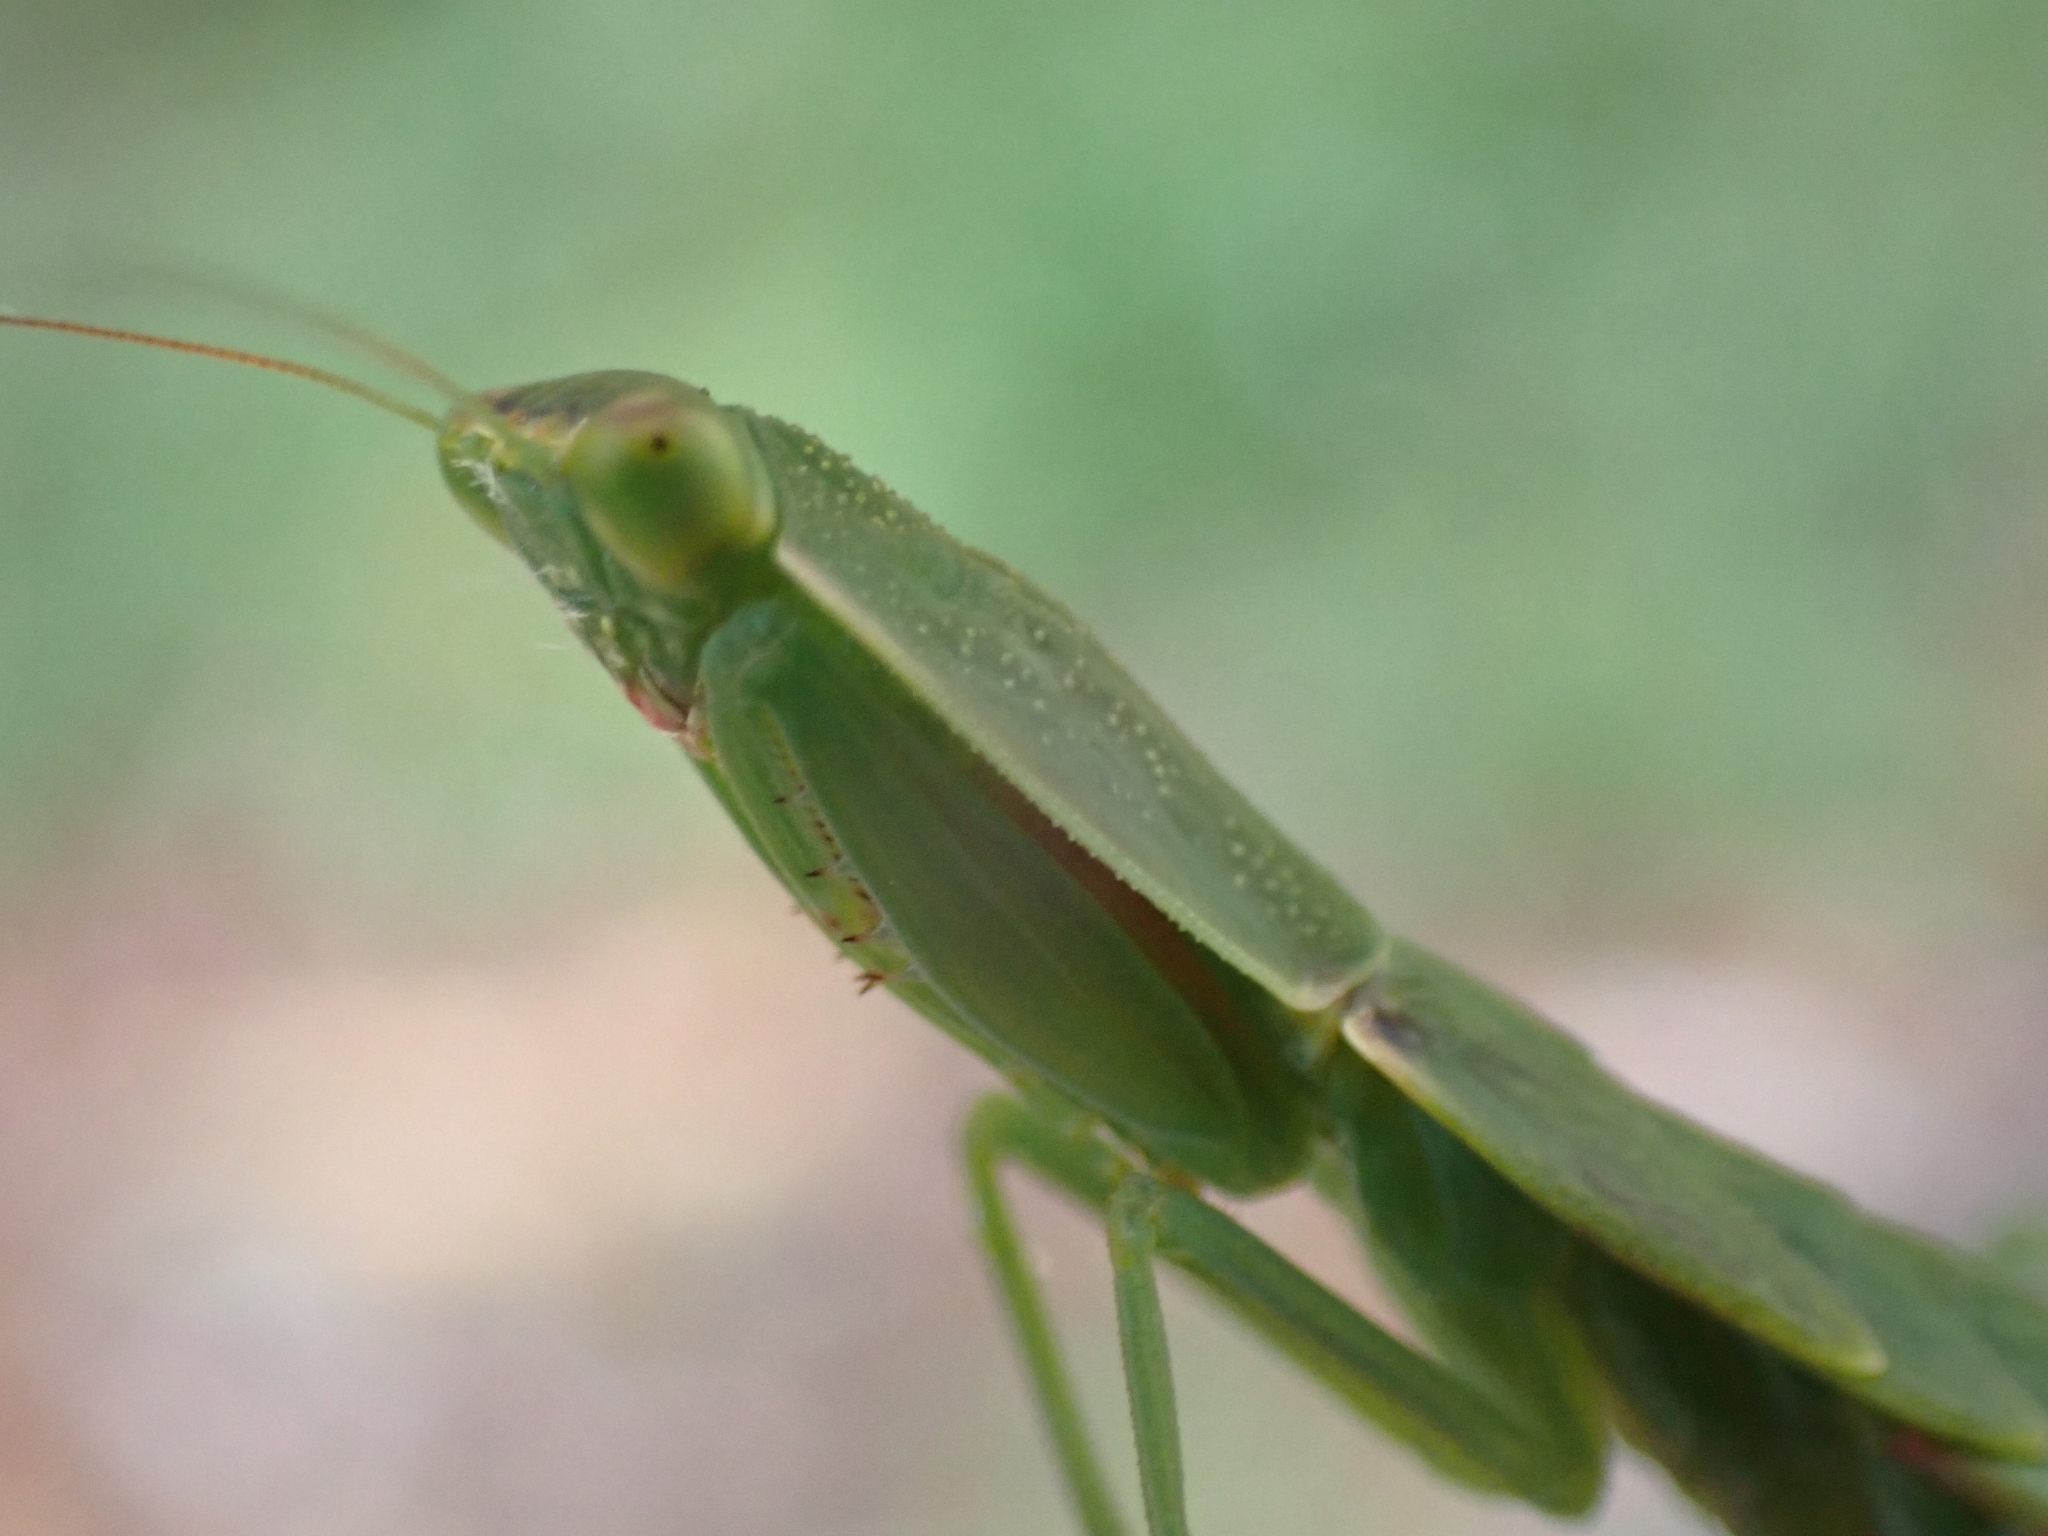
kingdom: Animalia
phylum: Arthropoda
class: Insecta
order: Mantodea
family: Mantidae
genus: Orthodera
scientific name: Orthodera novaezealandiae
